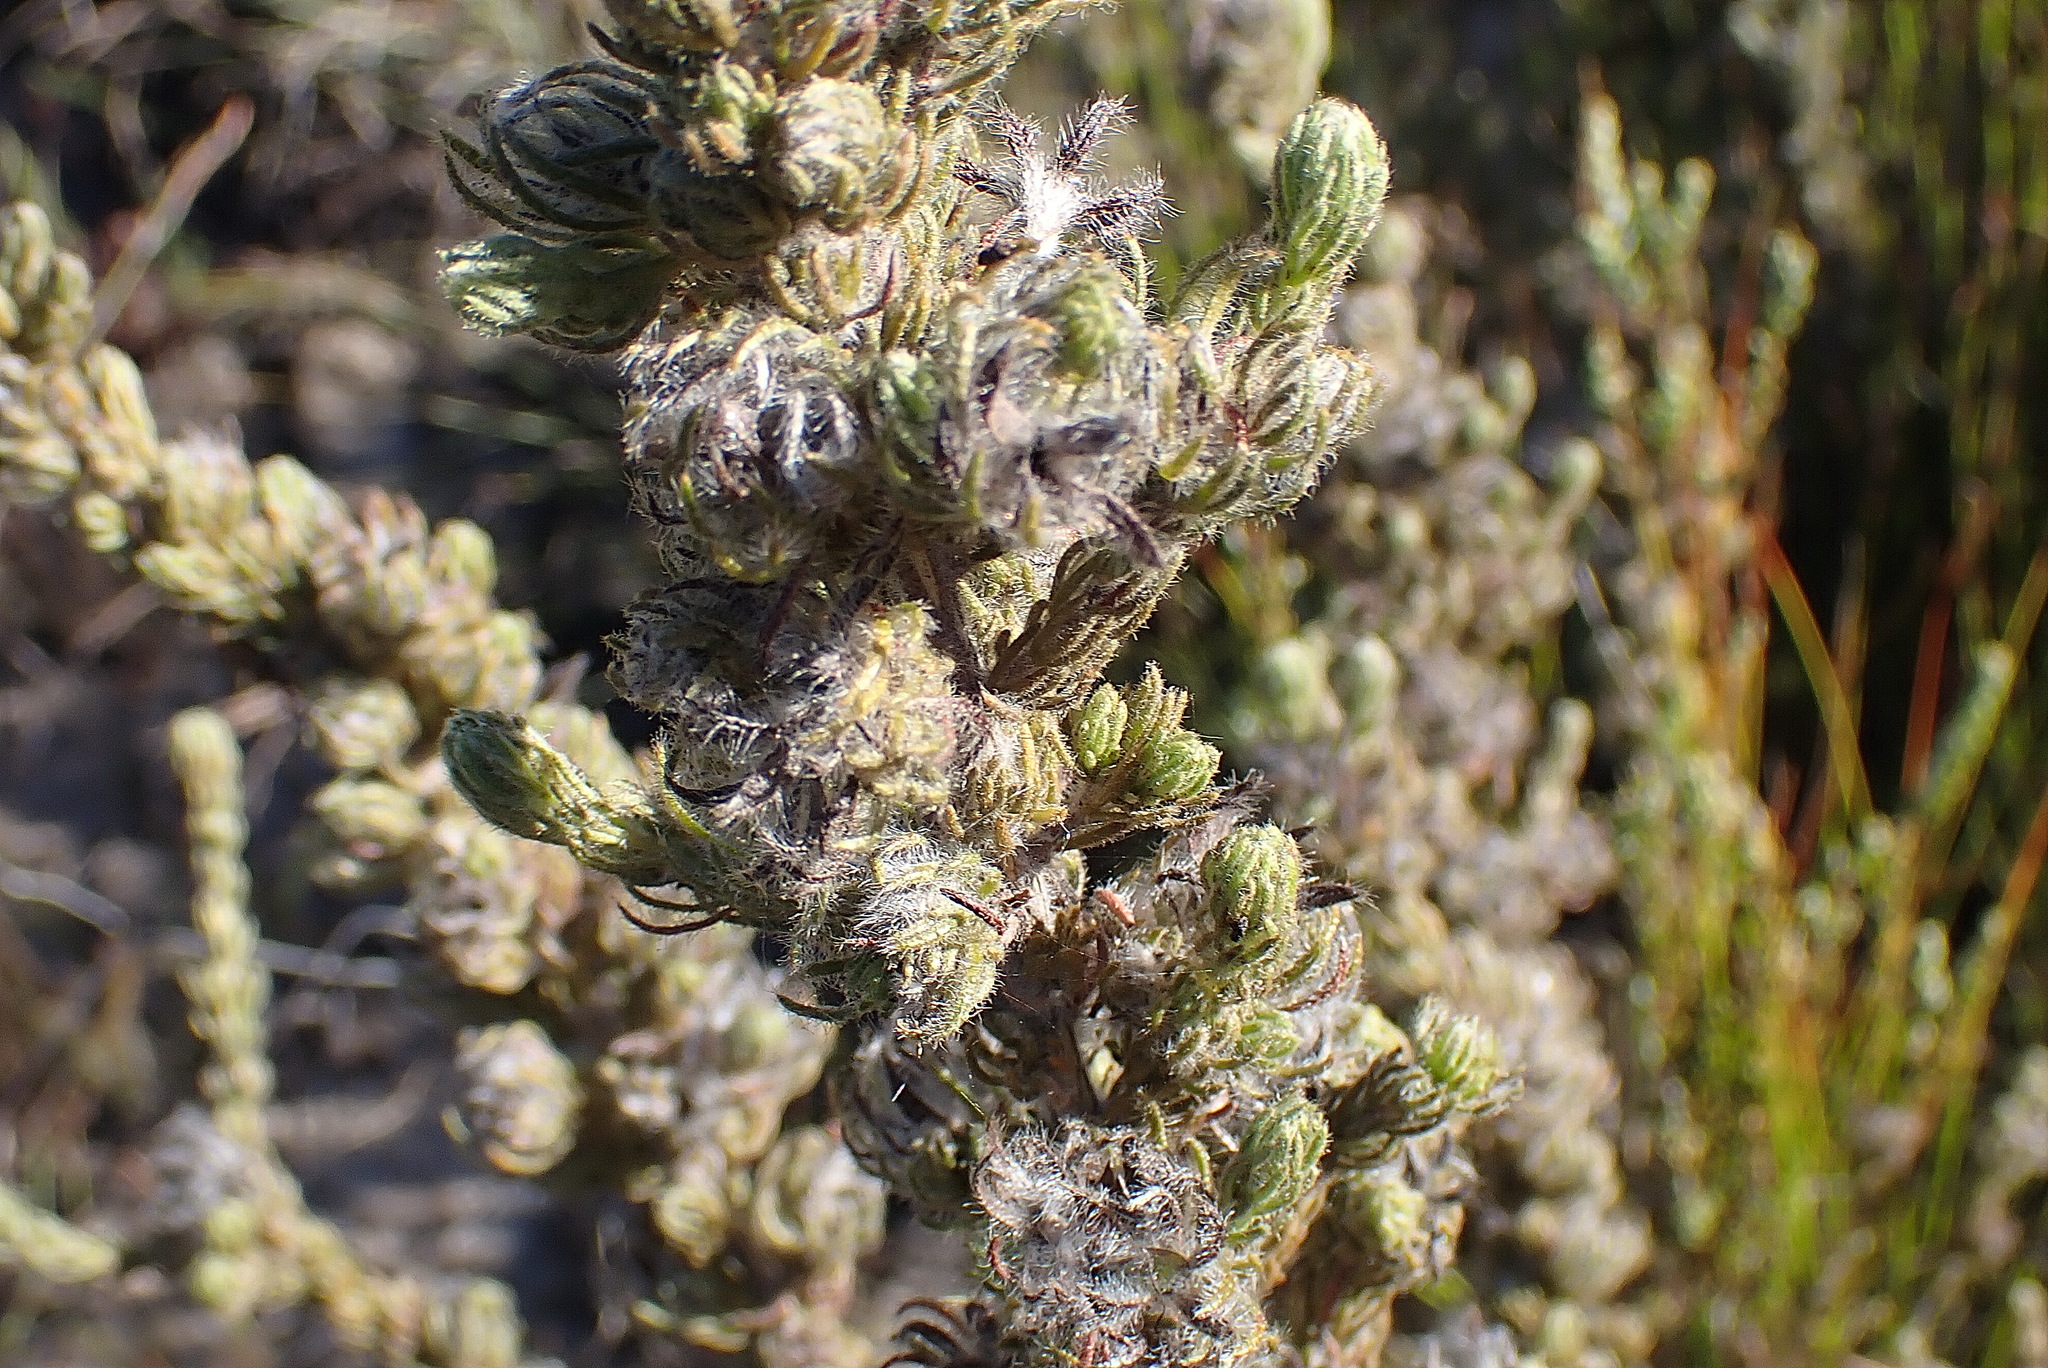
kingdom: Plantae
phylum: Tracheophyta
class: Magnoliopsida
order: Fabales
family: Fabaceae
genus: Aspalathus
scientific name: Aspalathus ciliaris
